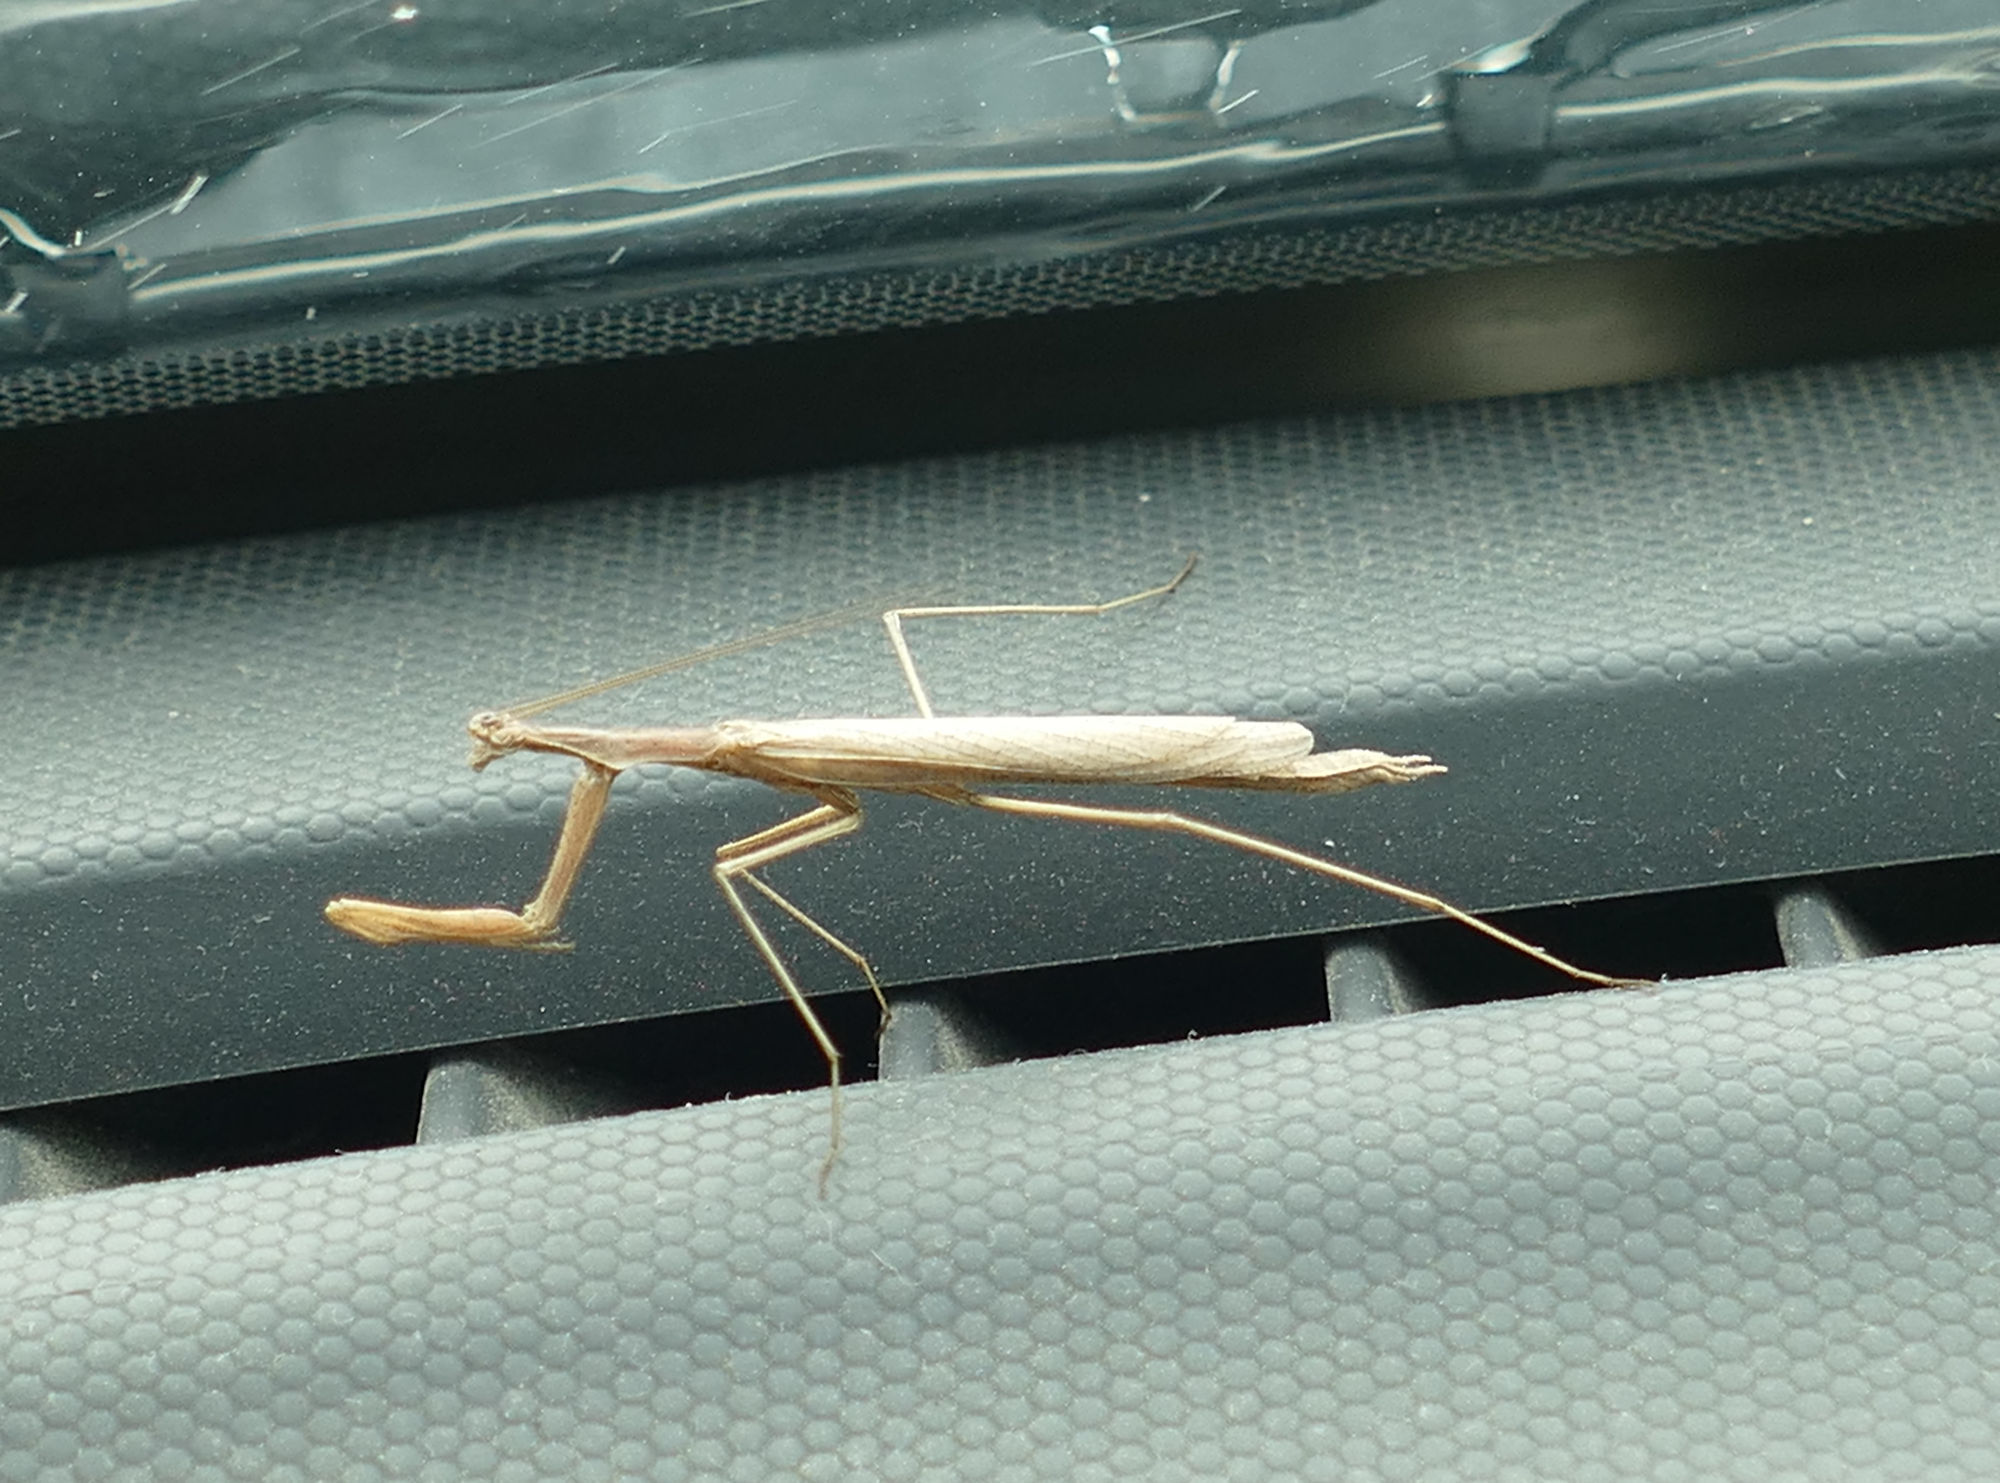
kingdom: Animalia
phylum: Arthropoda
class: Insecta
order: Mantodea
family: Thespidae
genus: Oligonicella
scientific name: Oligonicella scudderi
